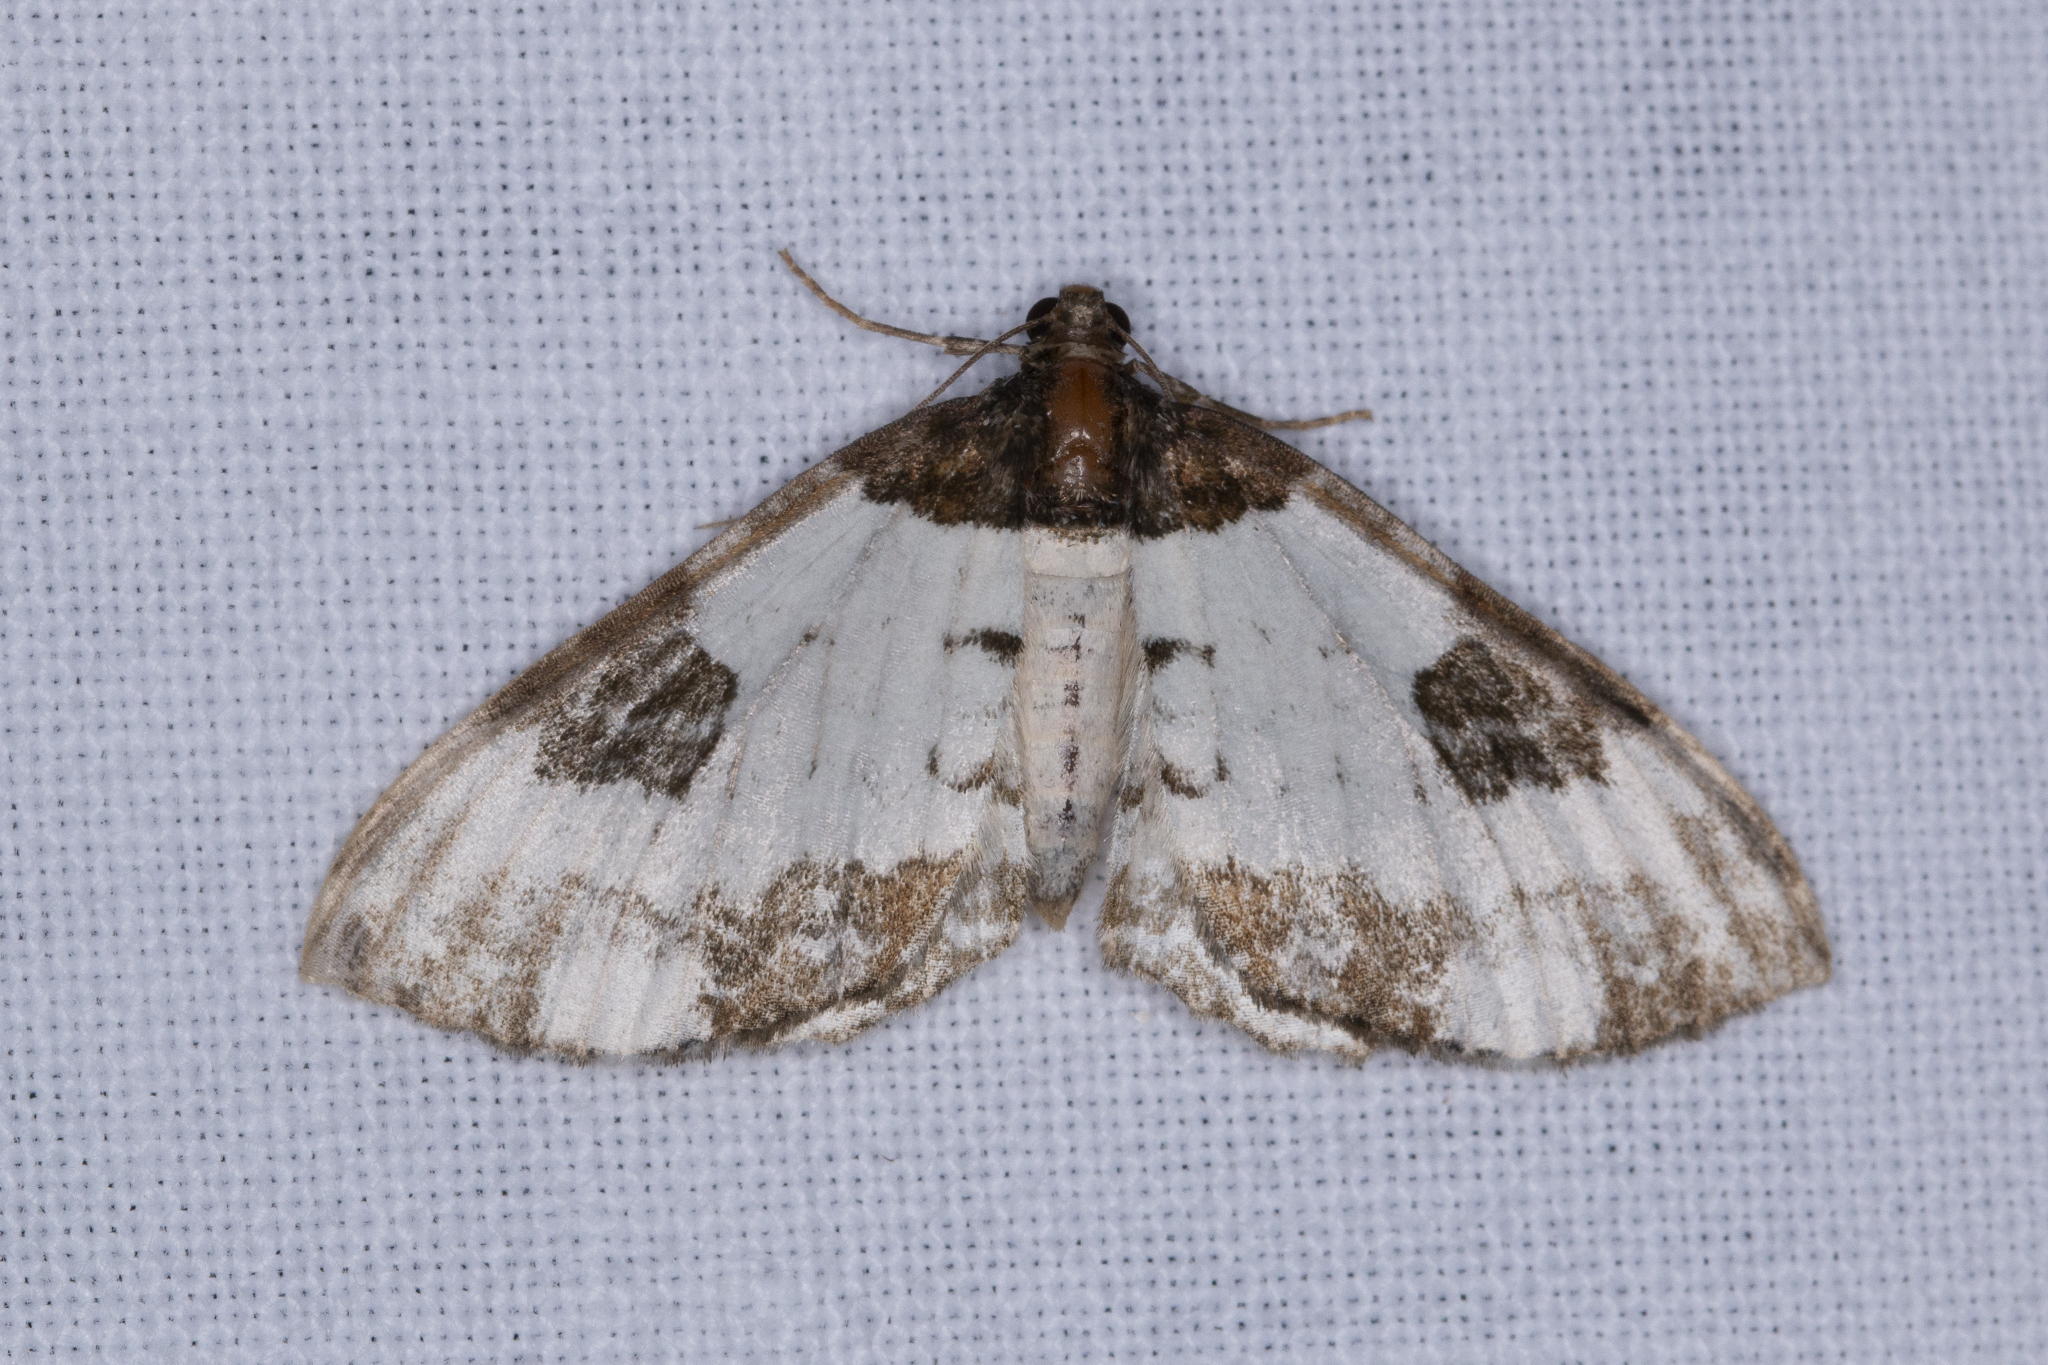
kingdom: Animalia
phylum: Arthropoda
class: Insecta
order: Lepidoptera
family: Geometridae
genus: Melanthia
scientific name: Melanthia procellata
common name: Pretty chalk carpet
